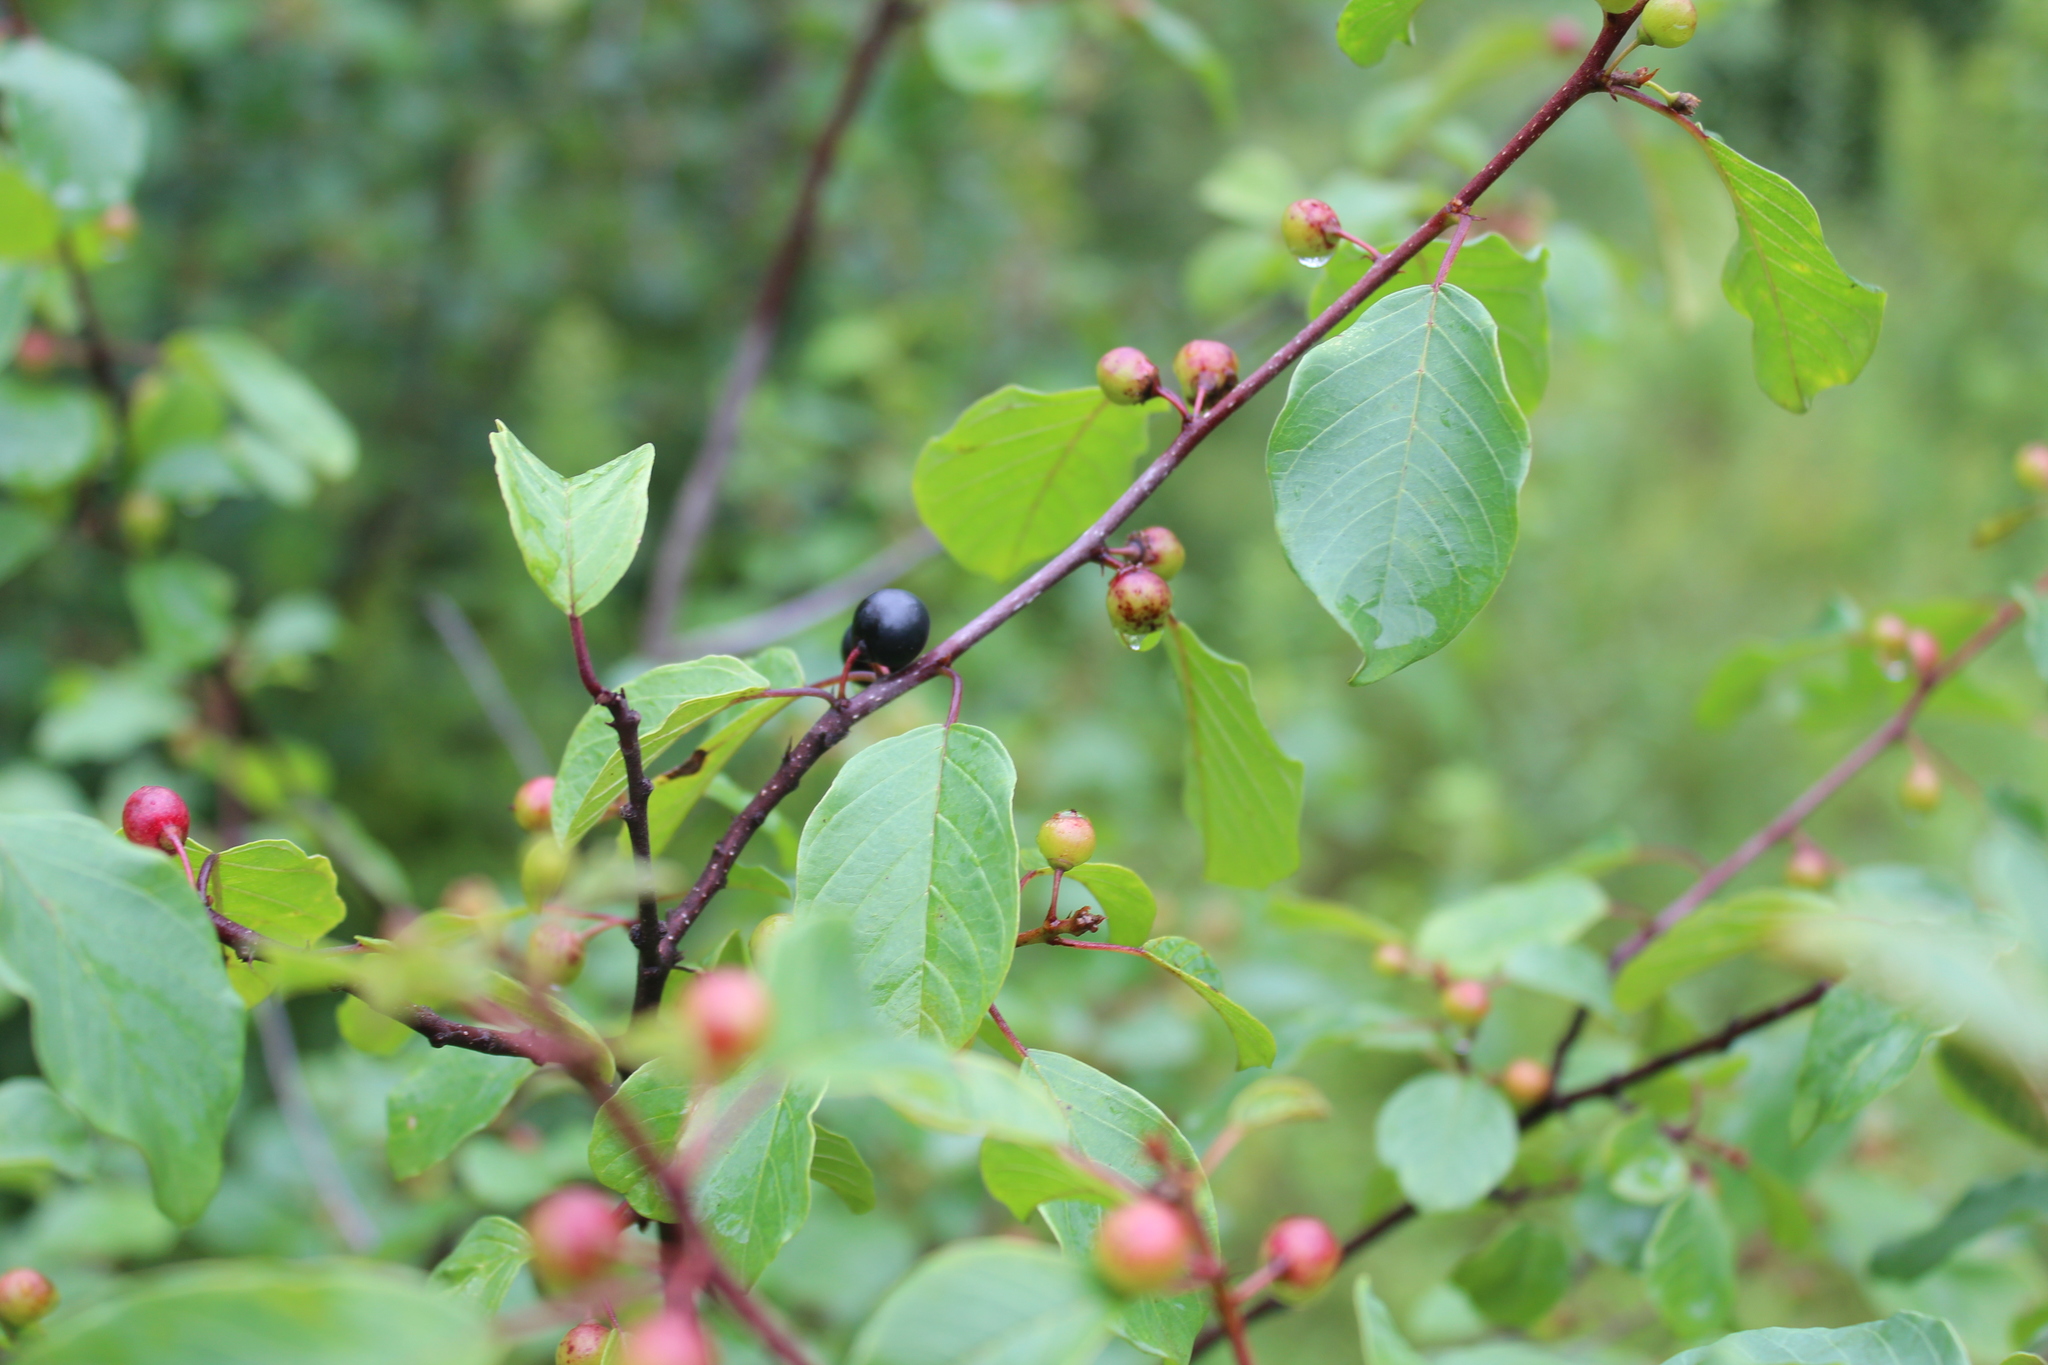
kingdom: Plantae
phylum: Tracheophyta
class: Magnoliopsida
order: Rosales
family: Rhamnaceae
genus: Frangula
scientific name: Frangula alnus
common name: Alder buckthorn
